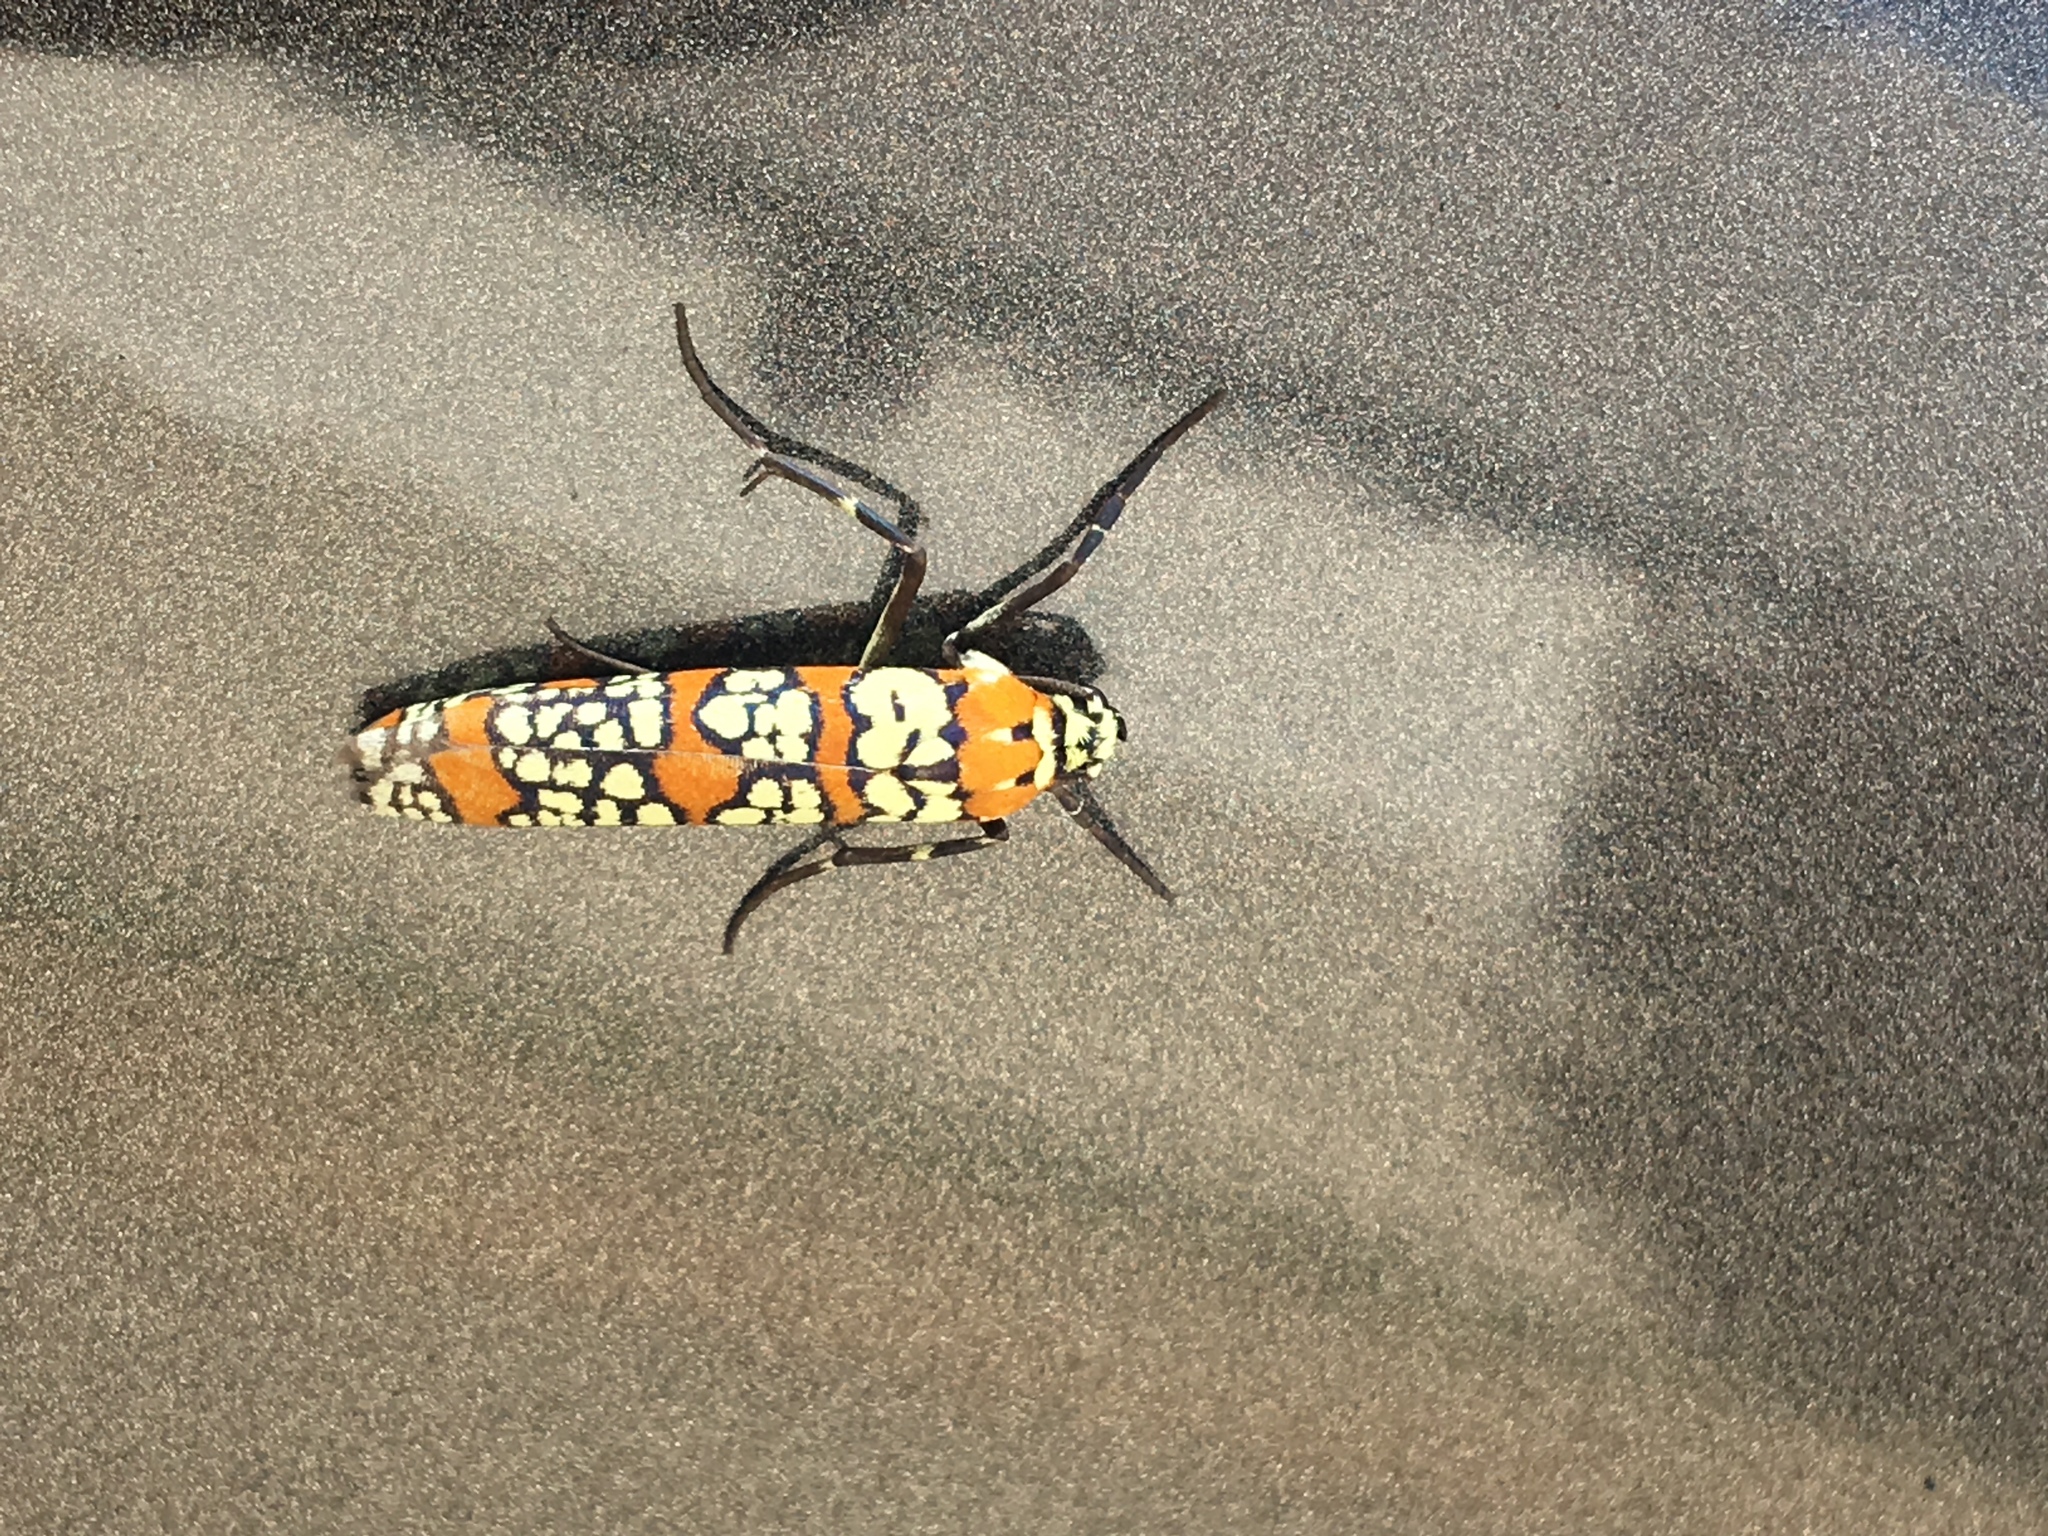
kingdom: Animalia
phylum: Arthropoda
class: Insecta
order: Lepidoptera
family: Attevidae
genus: Atteva
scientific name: Atteva punctella
